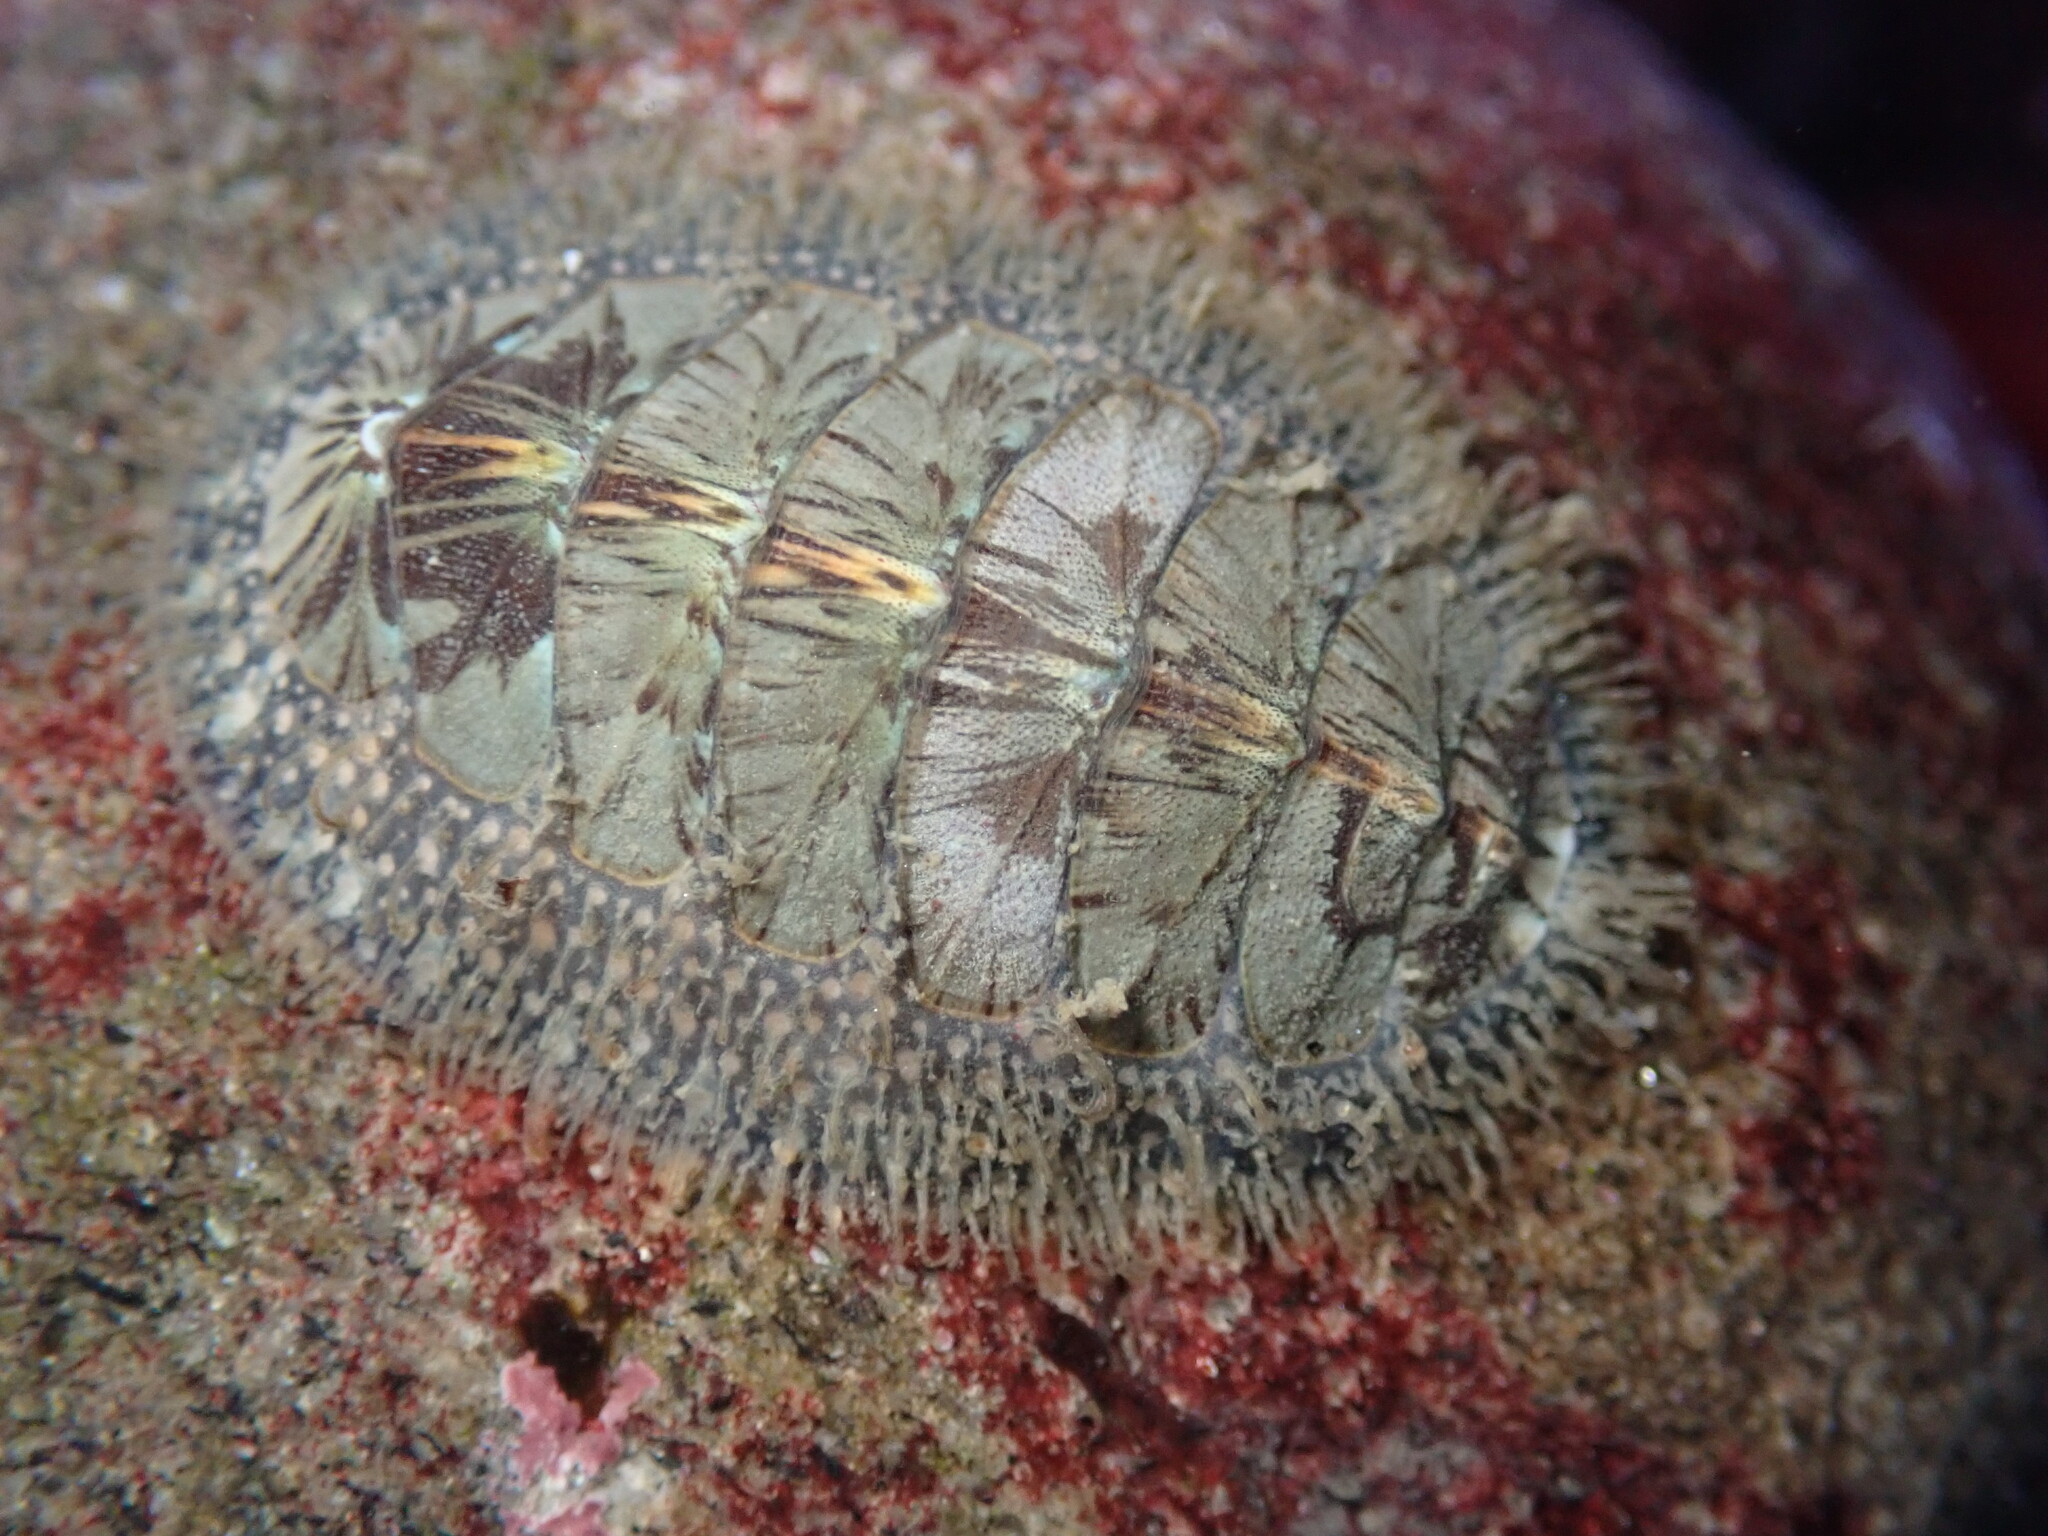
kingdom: Animalia
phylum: Mollusca
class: Polyplacophora
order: Chitonida
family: Mopaliidae
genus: Mopalia
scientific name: Mopalia lignosa
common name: Woody chiton
